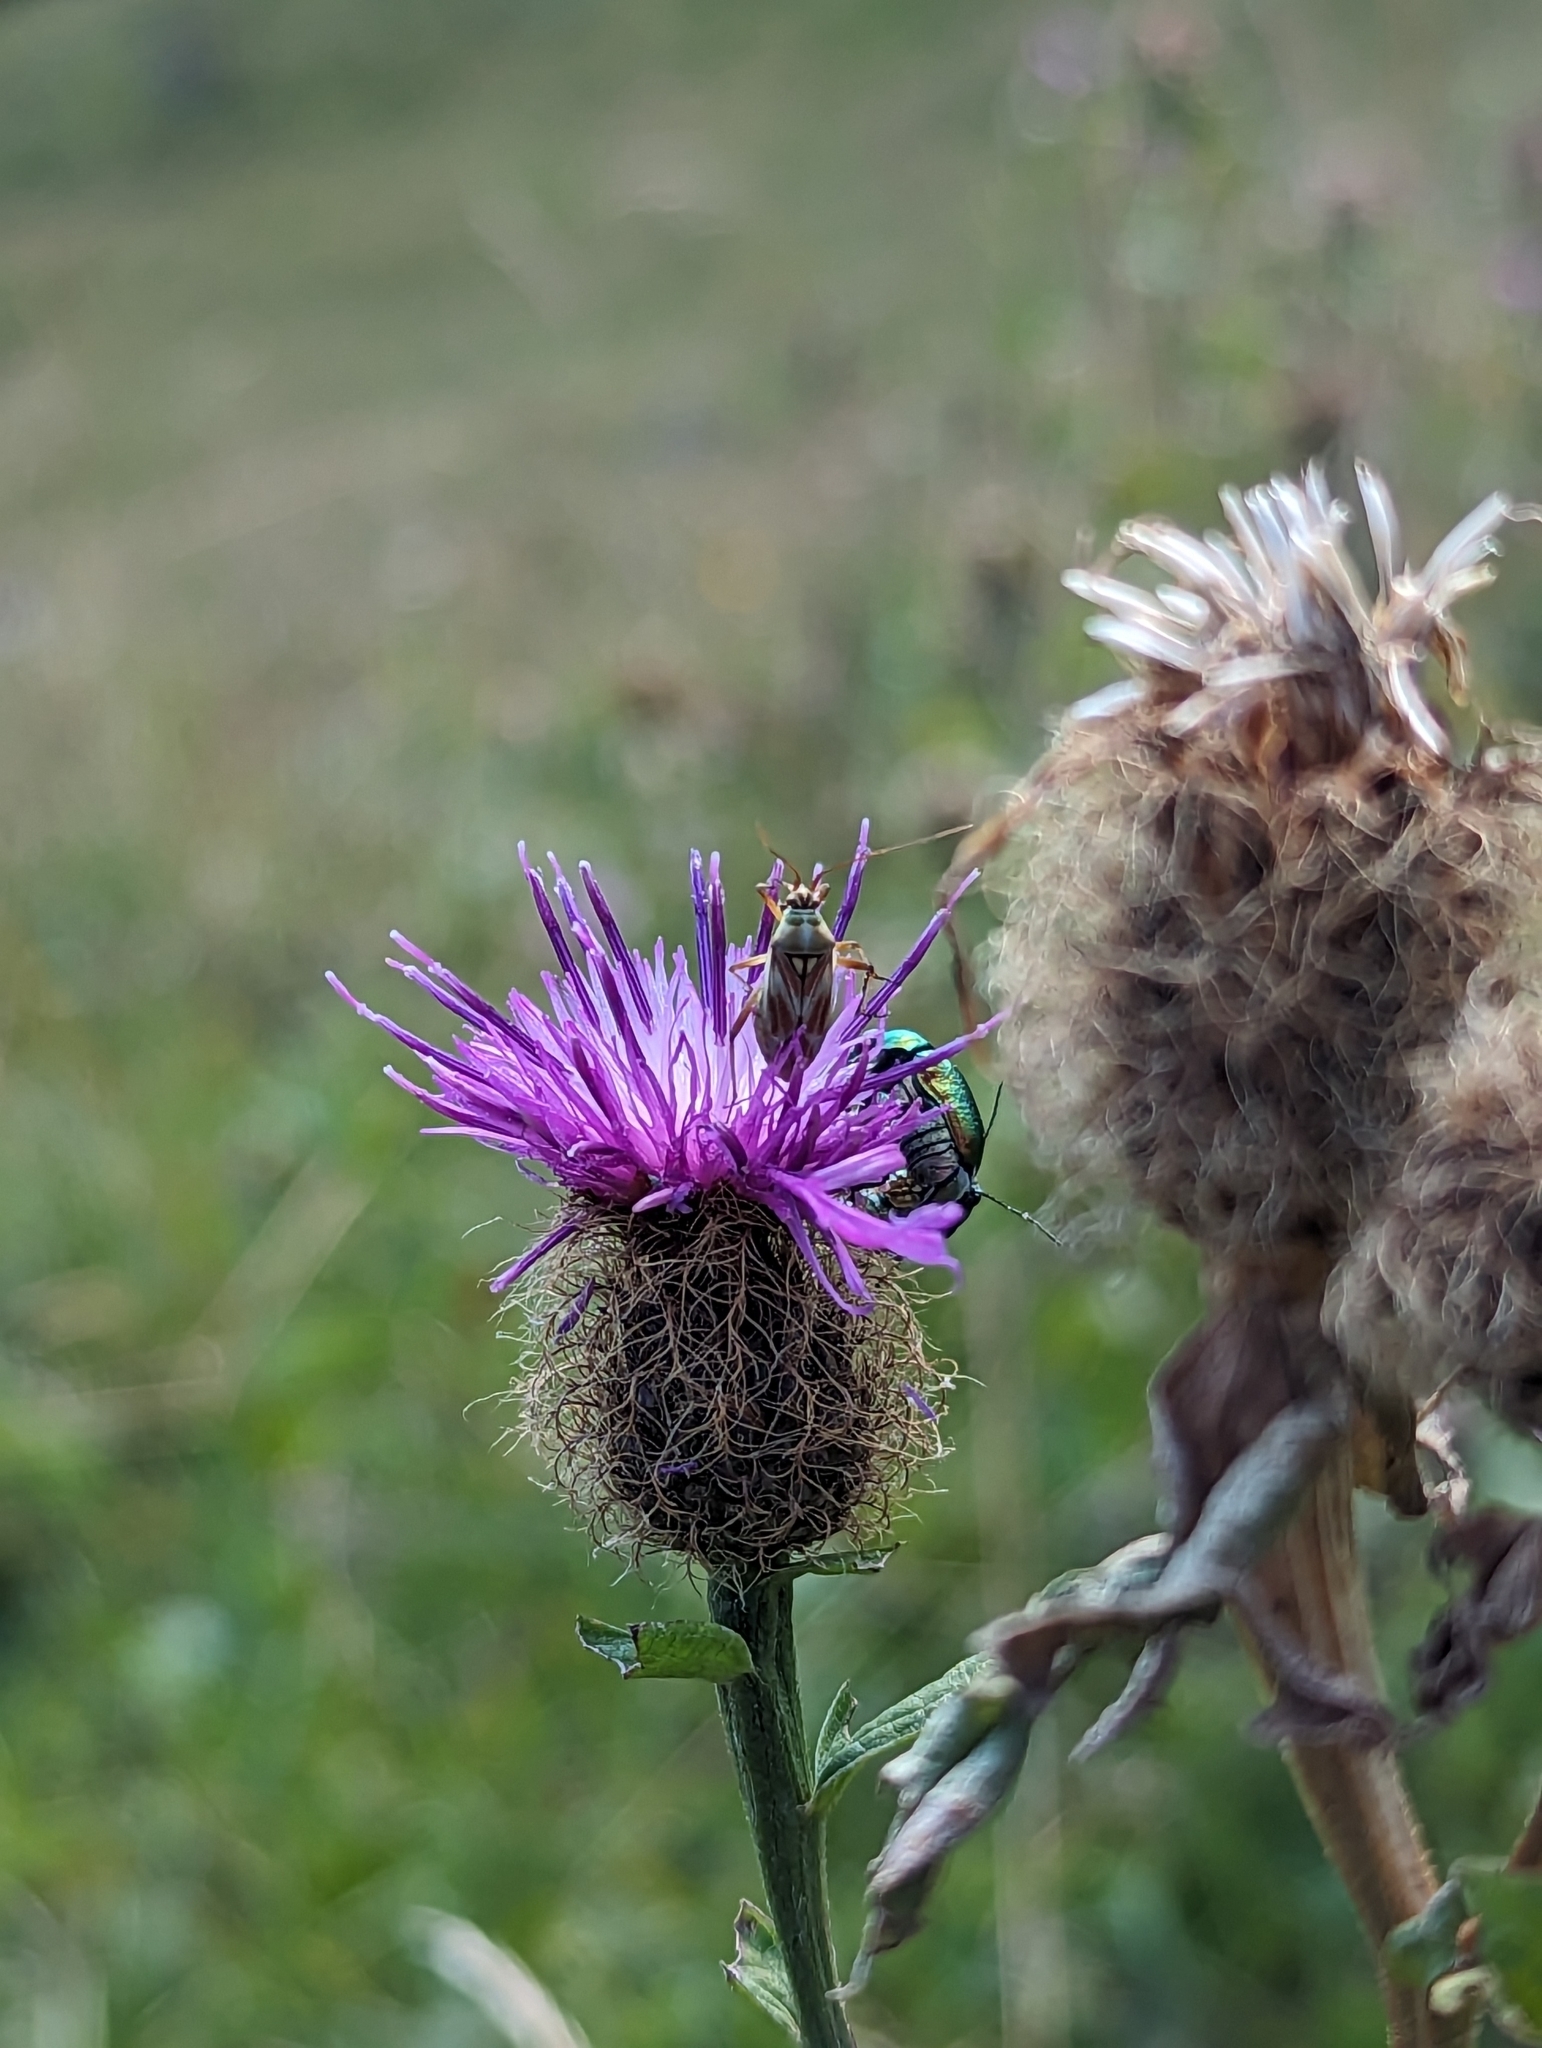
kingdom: Animalia
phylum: Arthropoda
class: Insecta
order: Hemiptera
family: Miridae
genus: Calocoris
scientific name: Calocoris roseomaculatus
